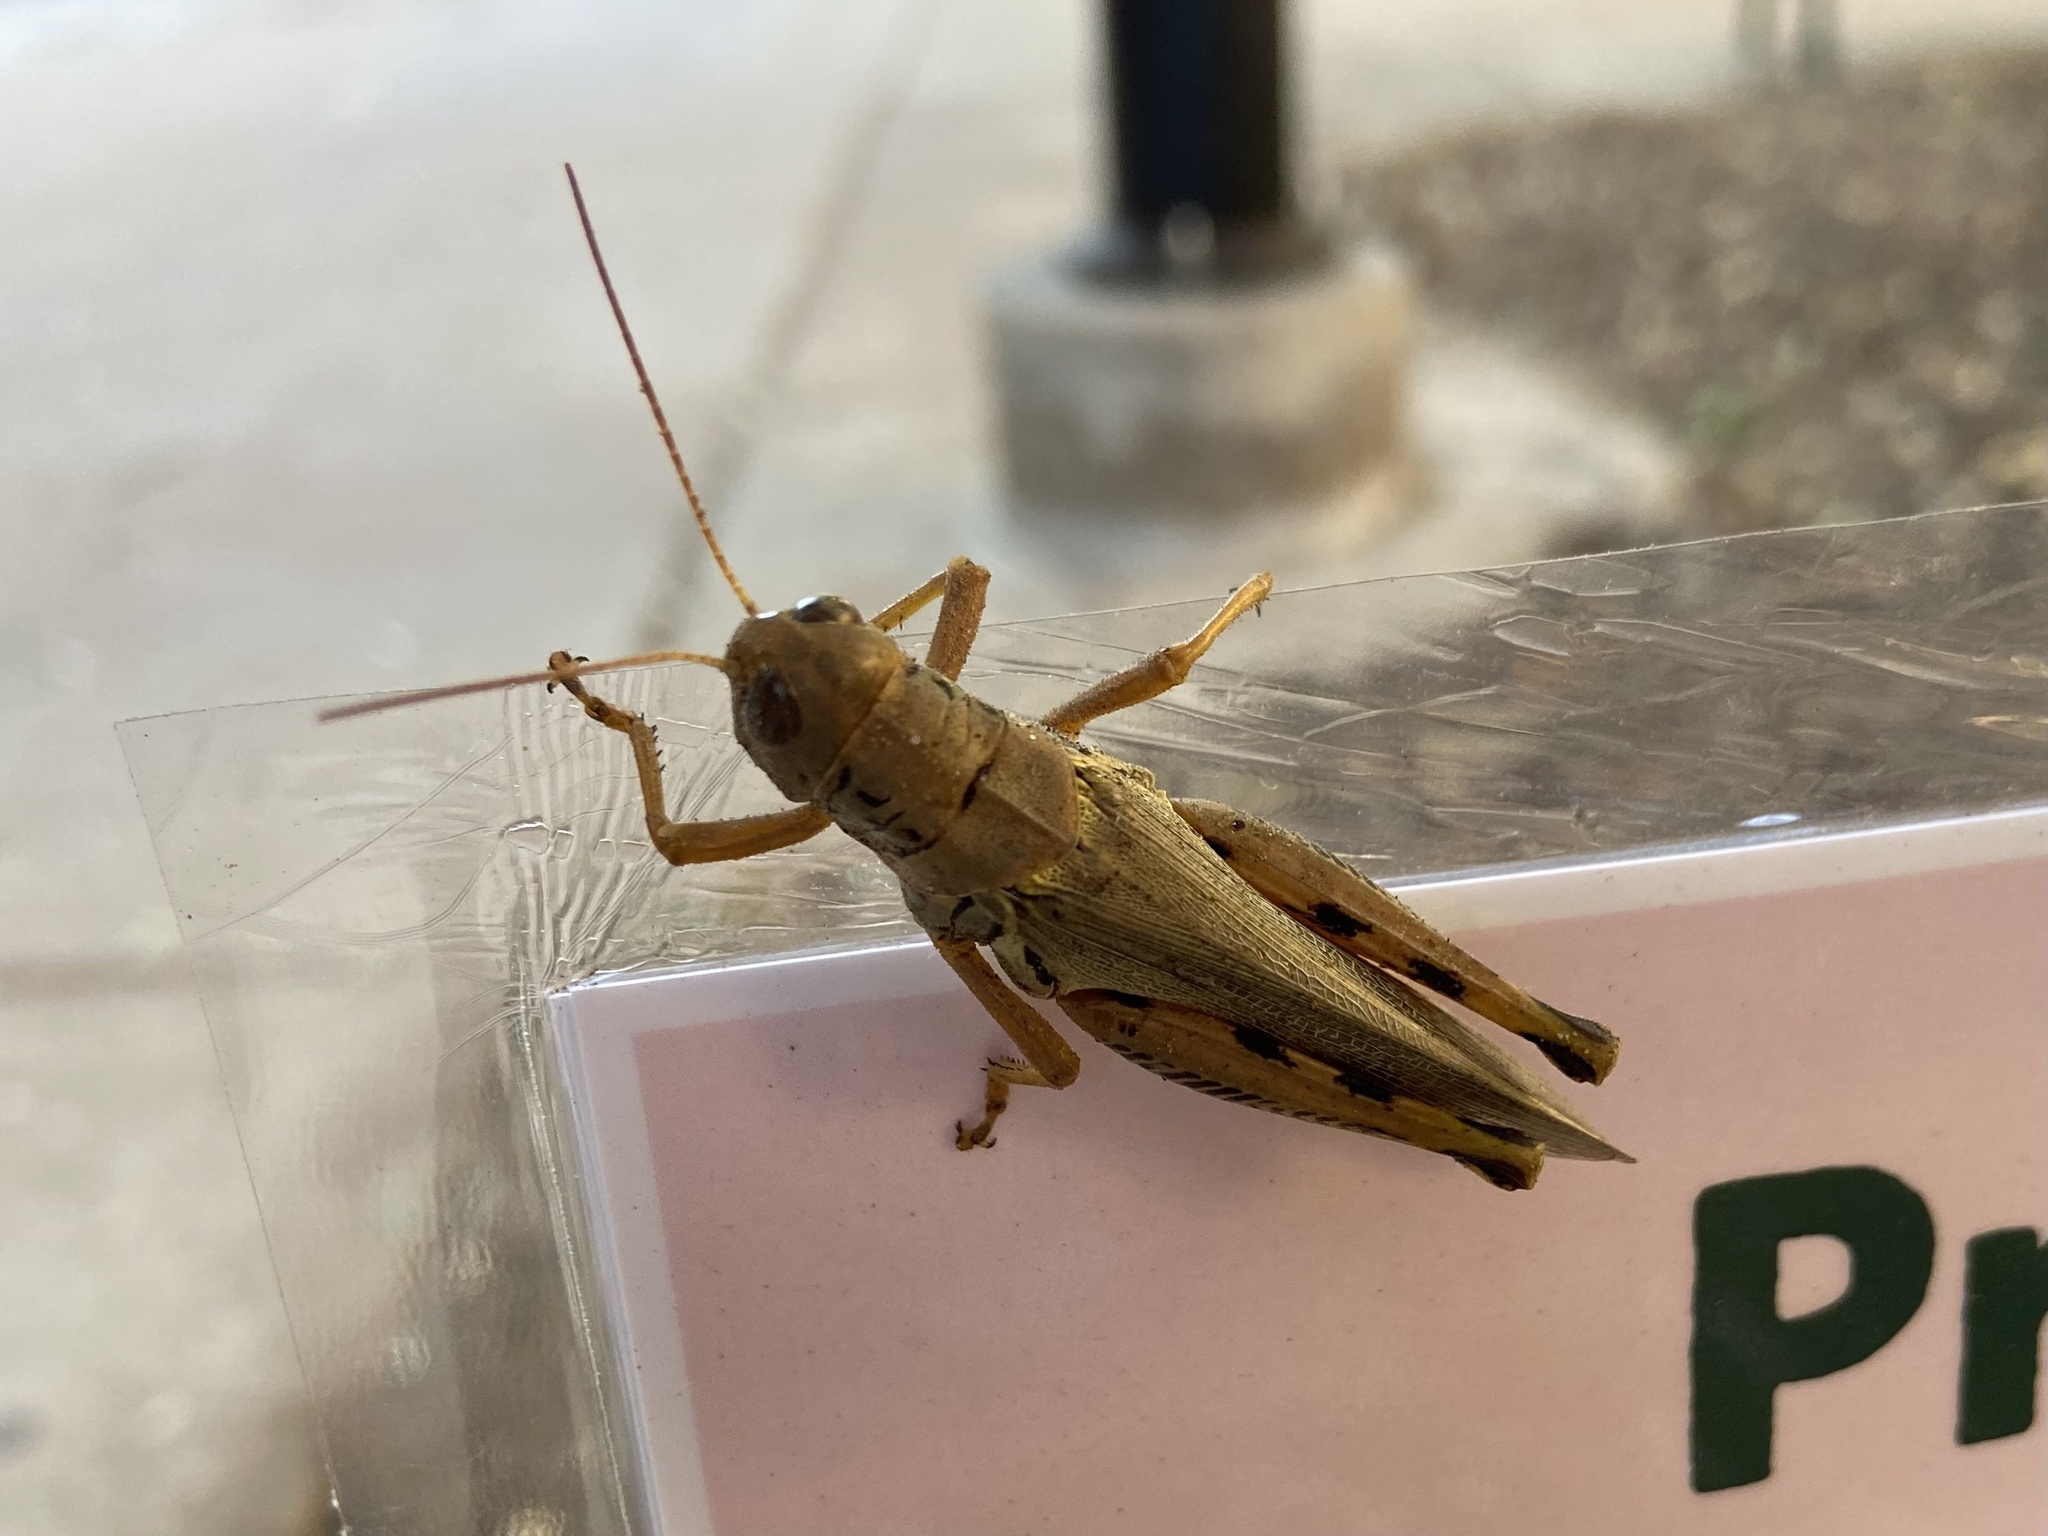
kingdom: Animalia
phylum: Arthropoda
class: Insecta
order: Orthoptera
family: Acrididae
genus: Melanoplus
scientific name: Melanoplus differentialis
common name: Differential grasshopper
